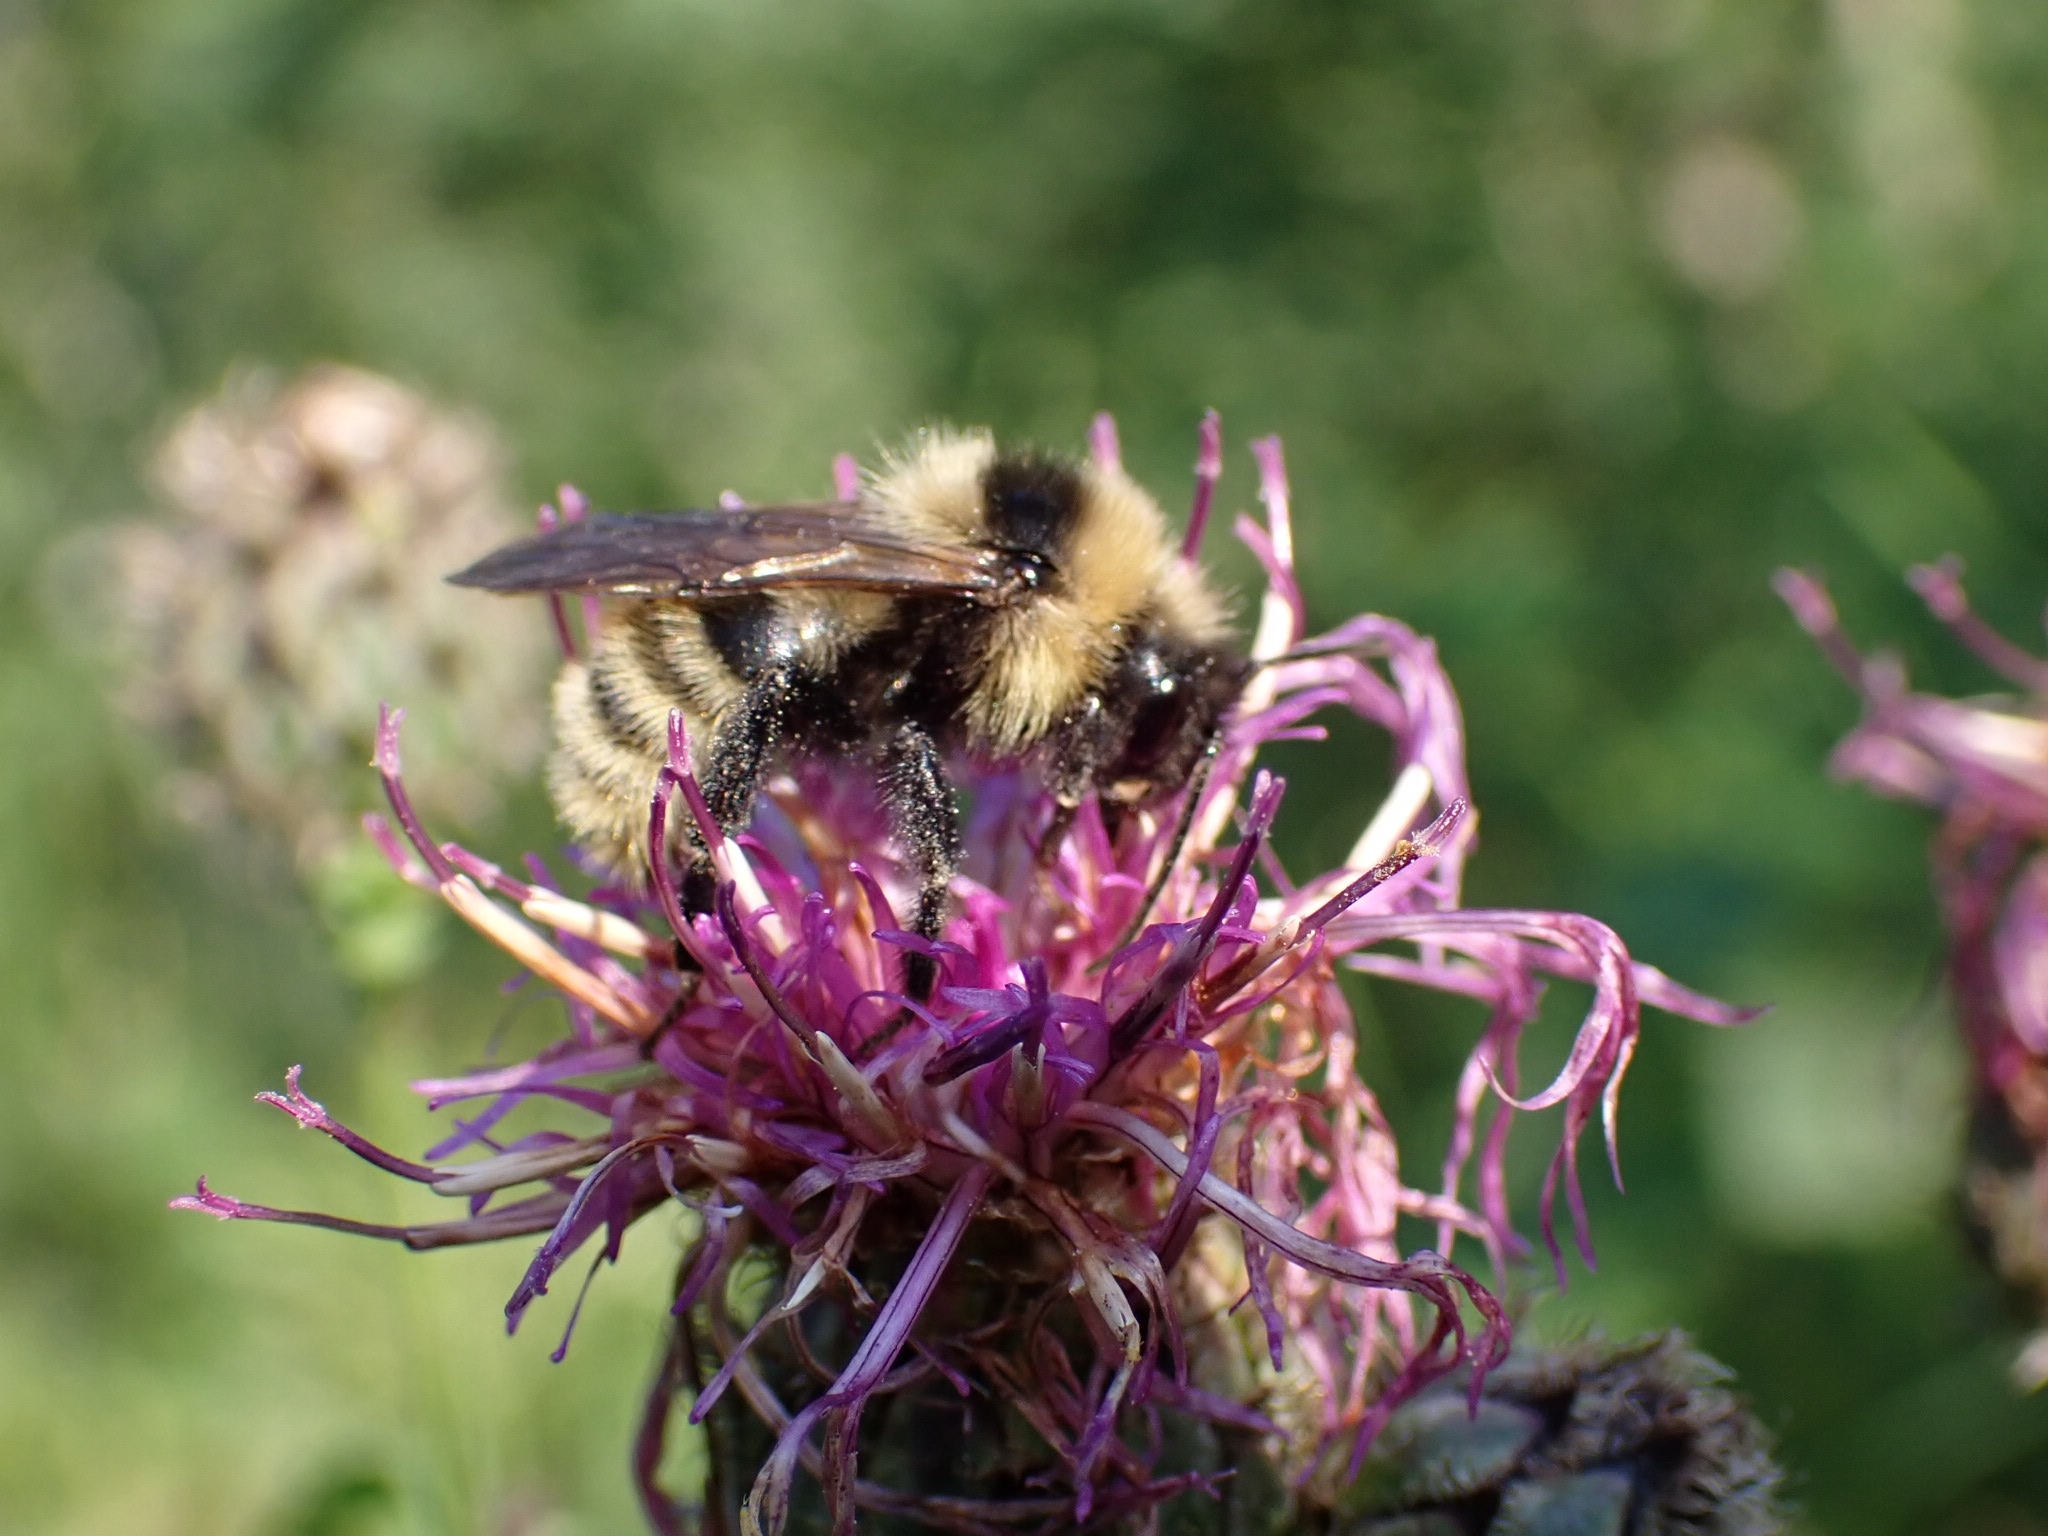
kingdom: Animalia
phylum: Arthropoda
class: Insecta
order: Hymenoptera
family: Apidae
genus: Bombus
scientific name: Bombus campestris
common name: Field cuckoo-bee
